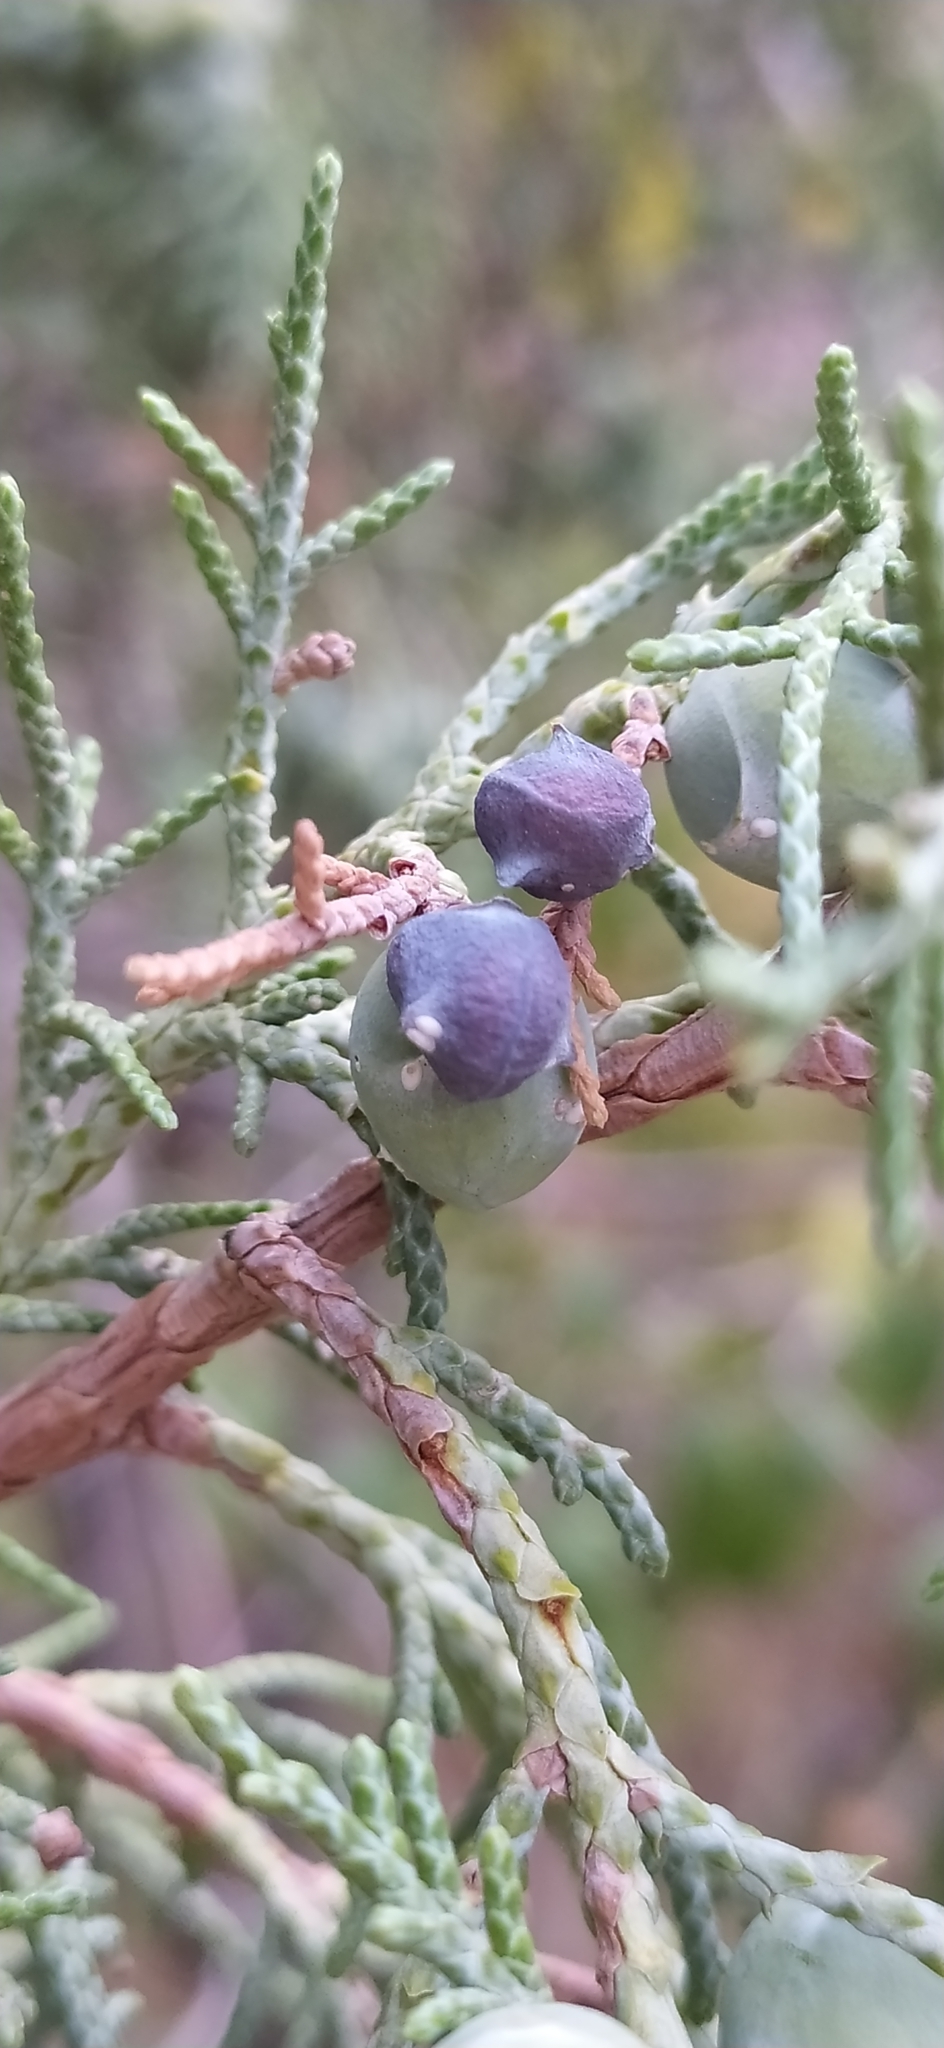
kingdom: Plantae
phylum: Tracheophyta
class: Pinopsida
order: Pinales
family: Cupressaceae
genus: Juniperus
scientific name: Juniperus excelsa
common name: Crimean juniper
